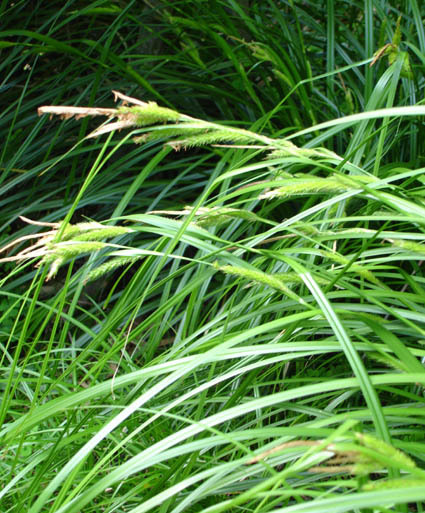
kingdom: Plantae
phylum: Tracheophyta
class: Liliopsida
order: Poales
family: Cyperaceae
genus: Carex
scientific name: Carex elingamita
